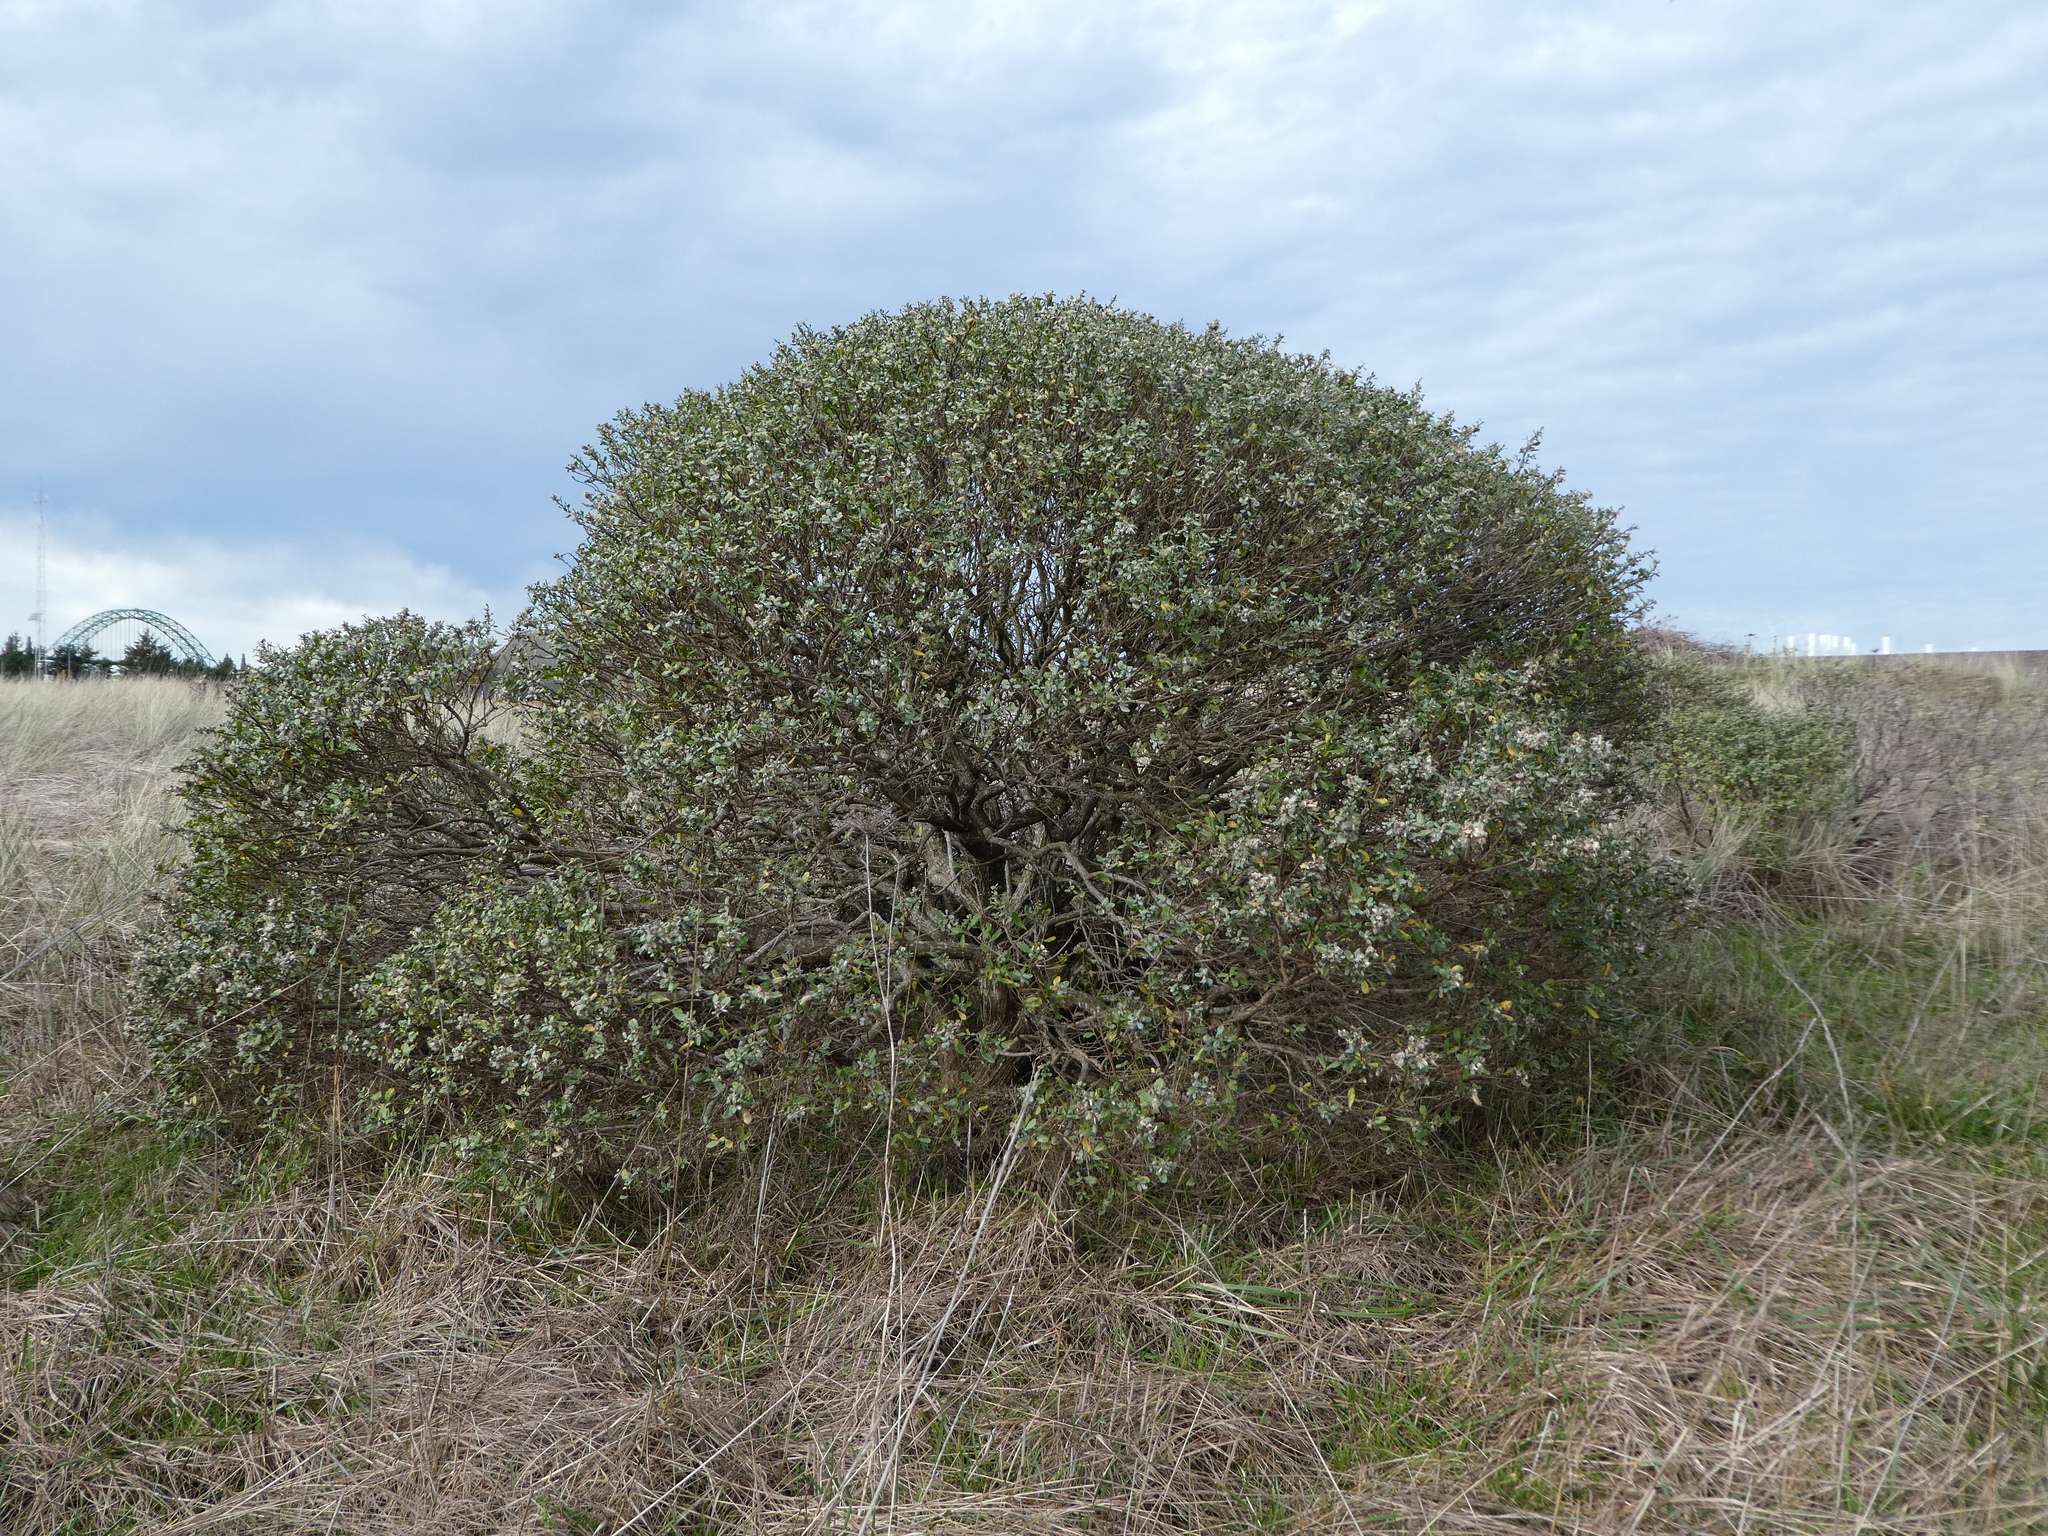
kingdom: Plantae
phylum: Tracheophyta
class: Magnoliopsida
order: Asterales
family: Asteraceae
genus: Baccharis
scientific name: Baccharis pilularis
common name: Coyotebrush
